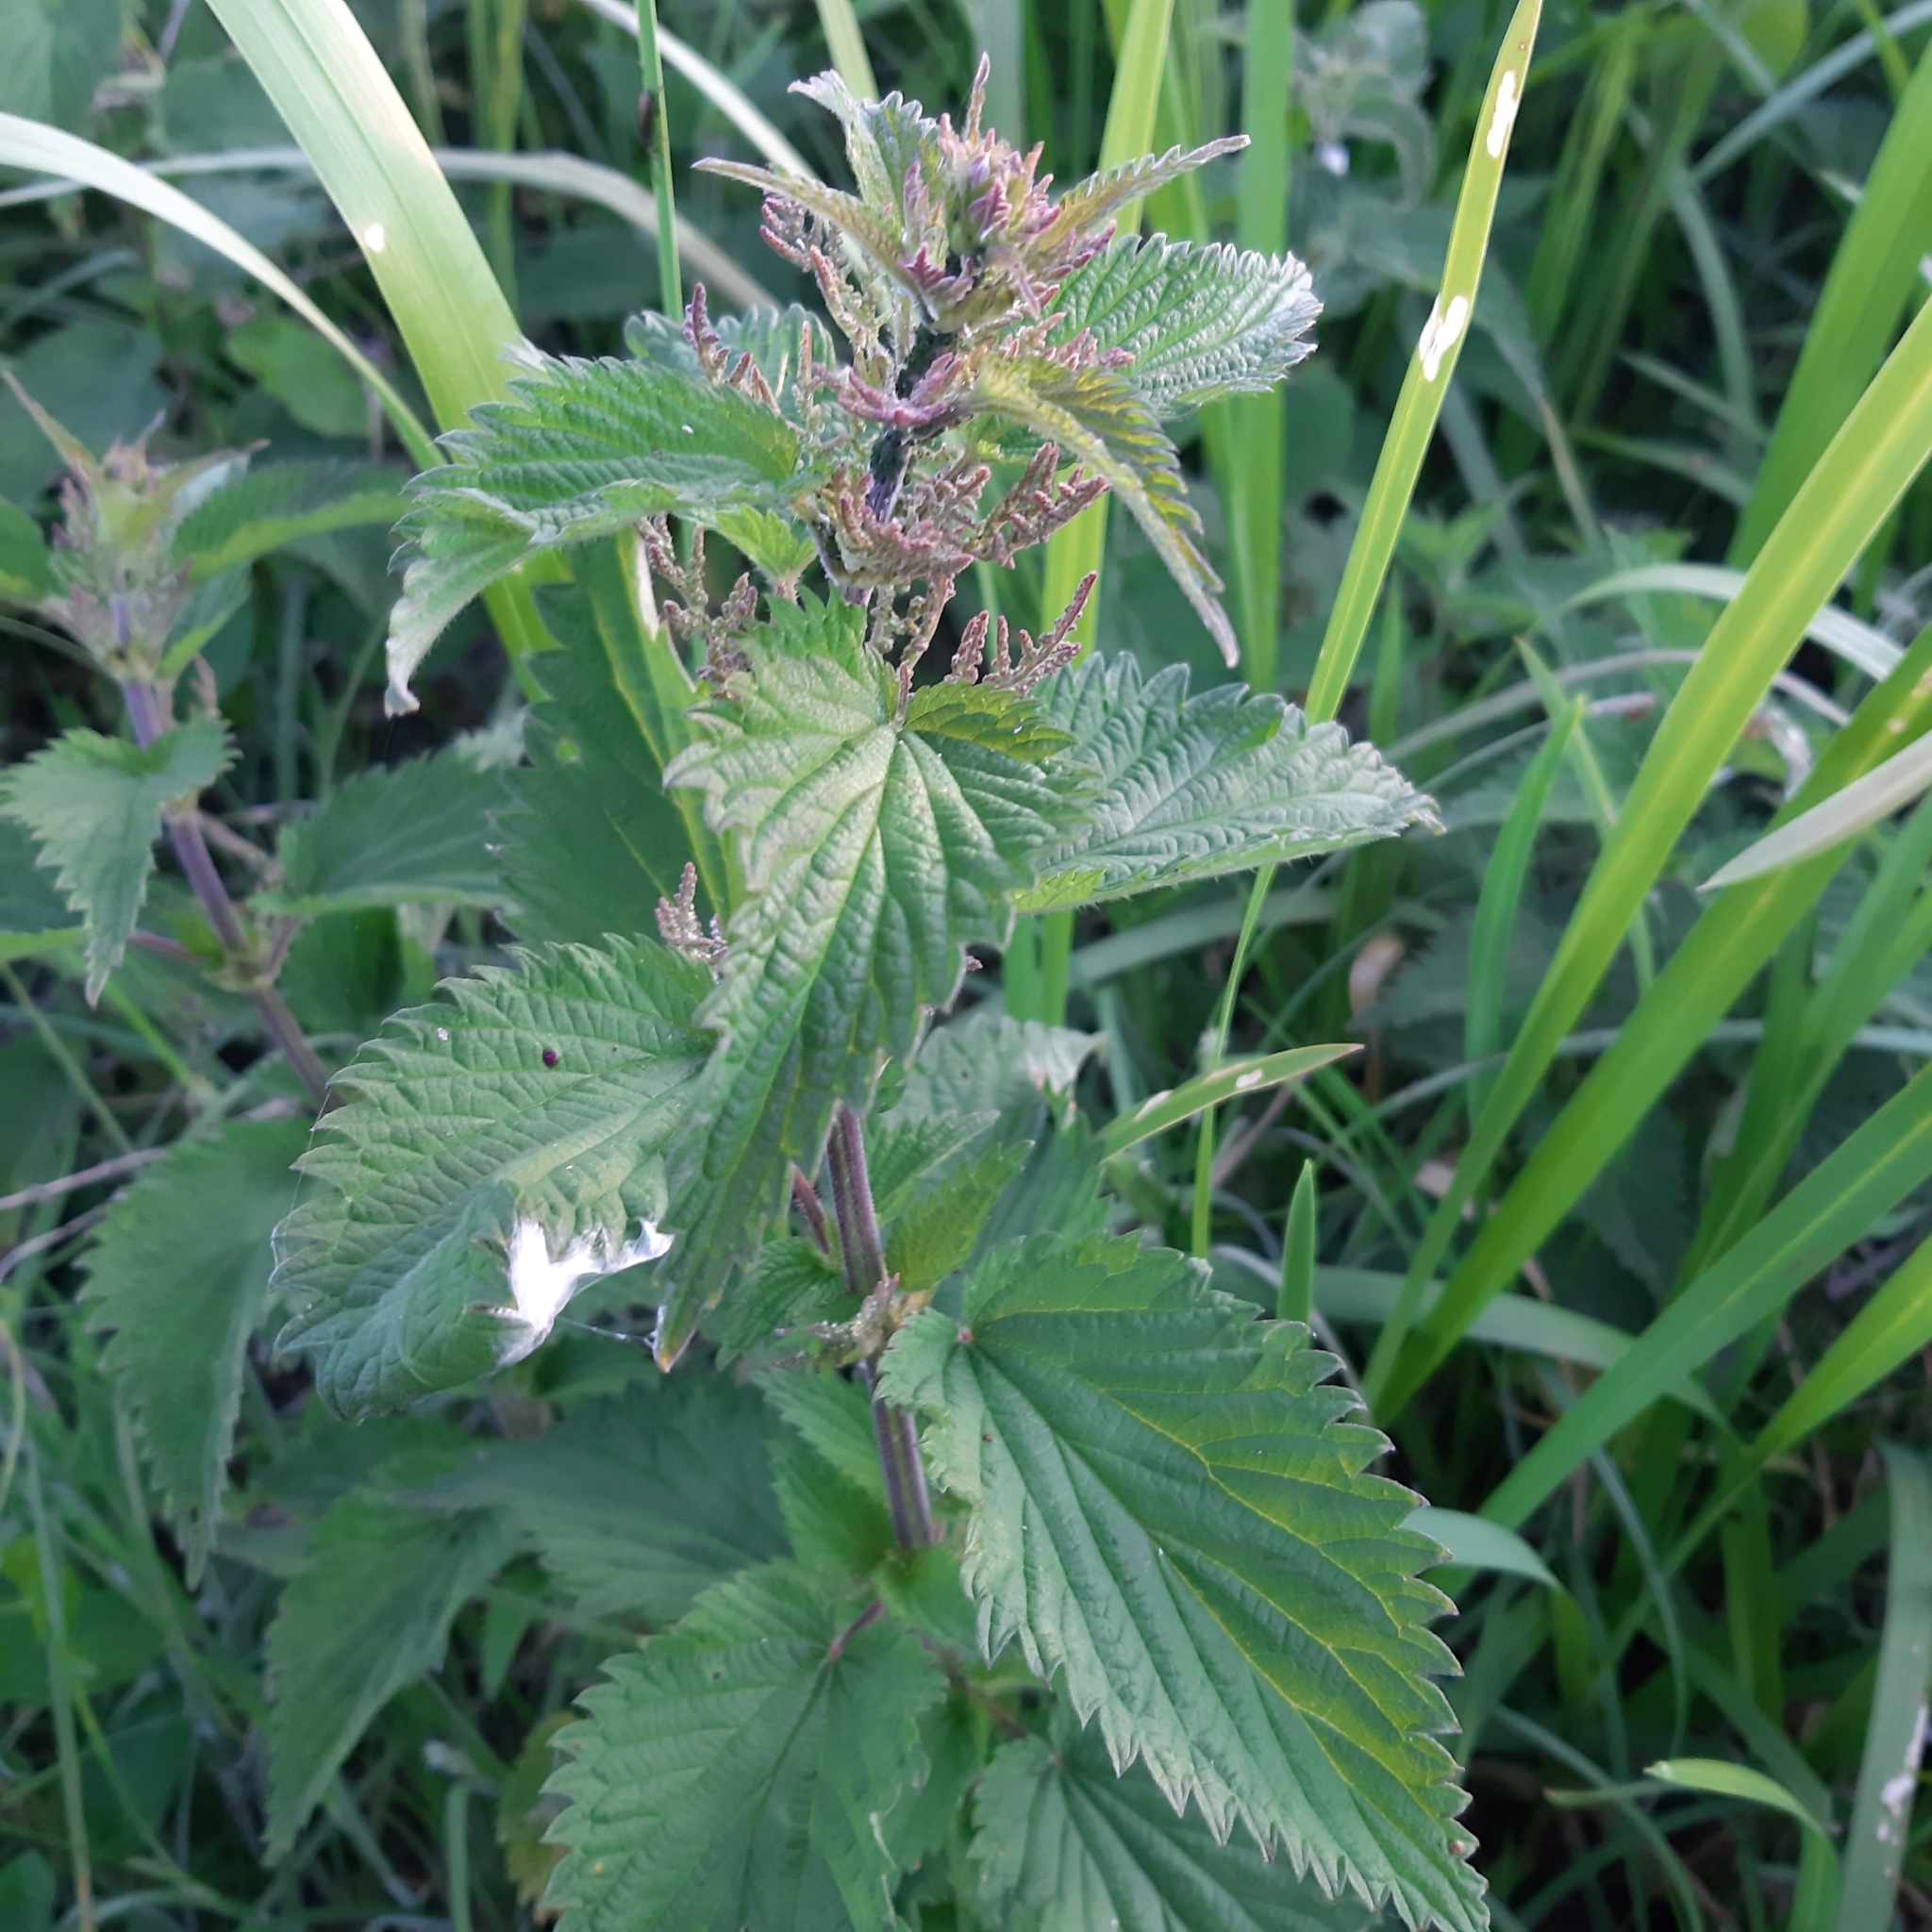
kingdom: Plantae
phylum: Tracheophyta
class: Magnoliopsida
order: Rosales
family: Urticaceae
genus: Urtica
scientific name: Urtica dioica
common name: Common nettle
